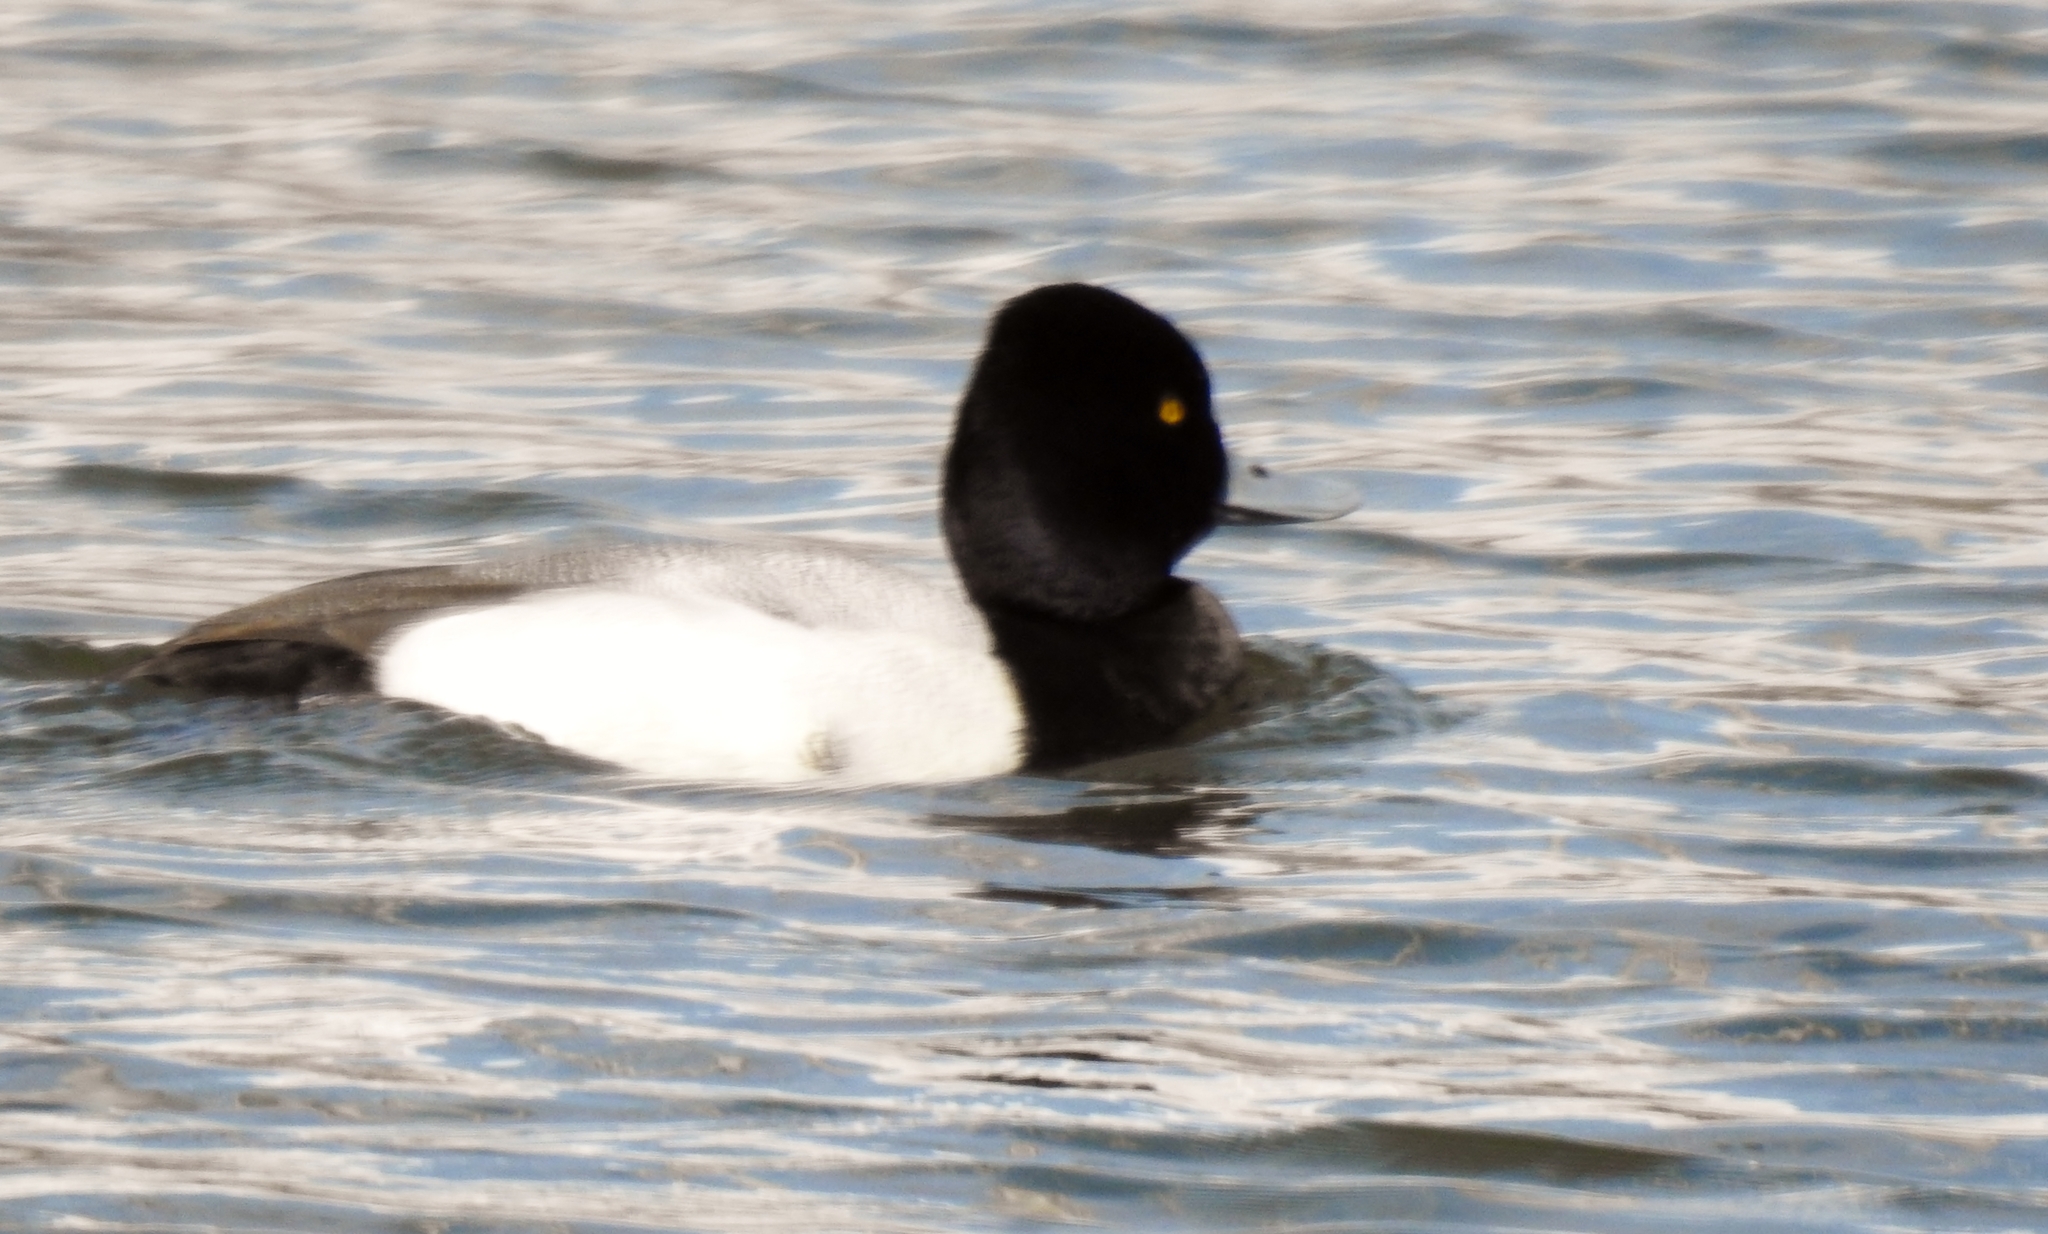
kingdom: Animalia
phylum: Chordata
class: Aves
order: Anseriformes
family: Anatidae
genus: Aythya
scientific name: Aythya affinis
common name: Lesser scaup
